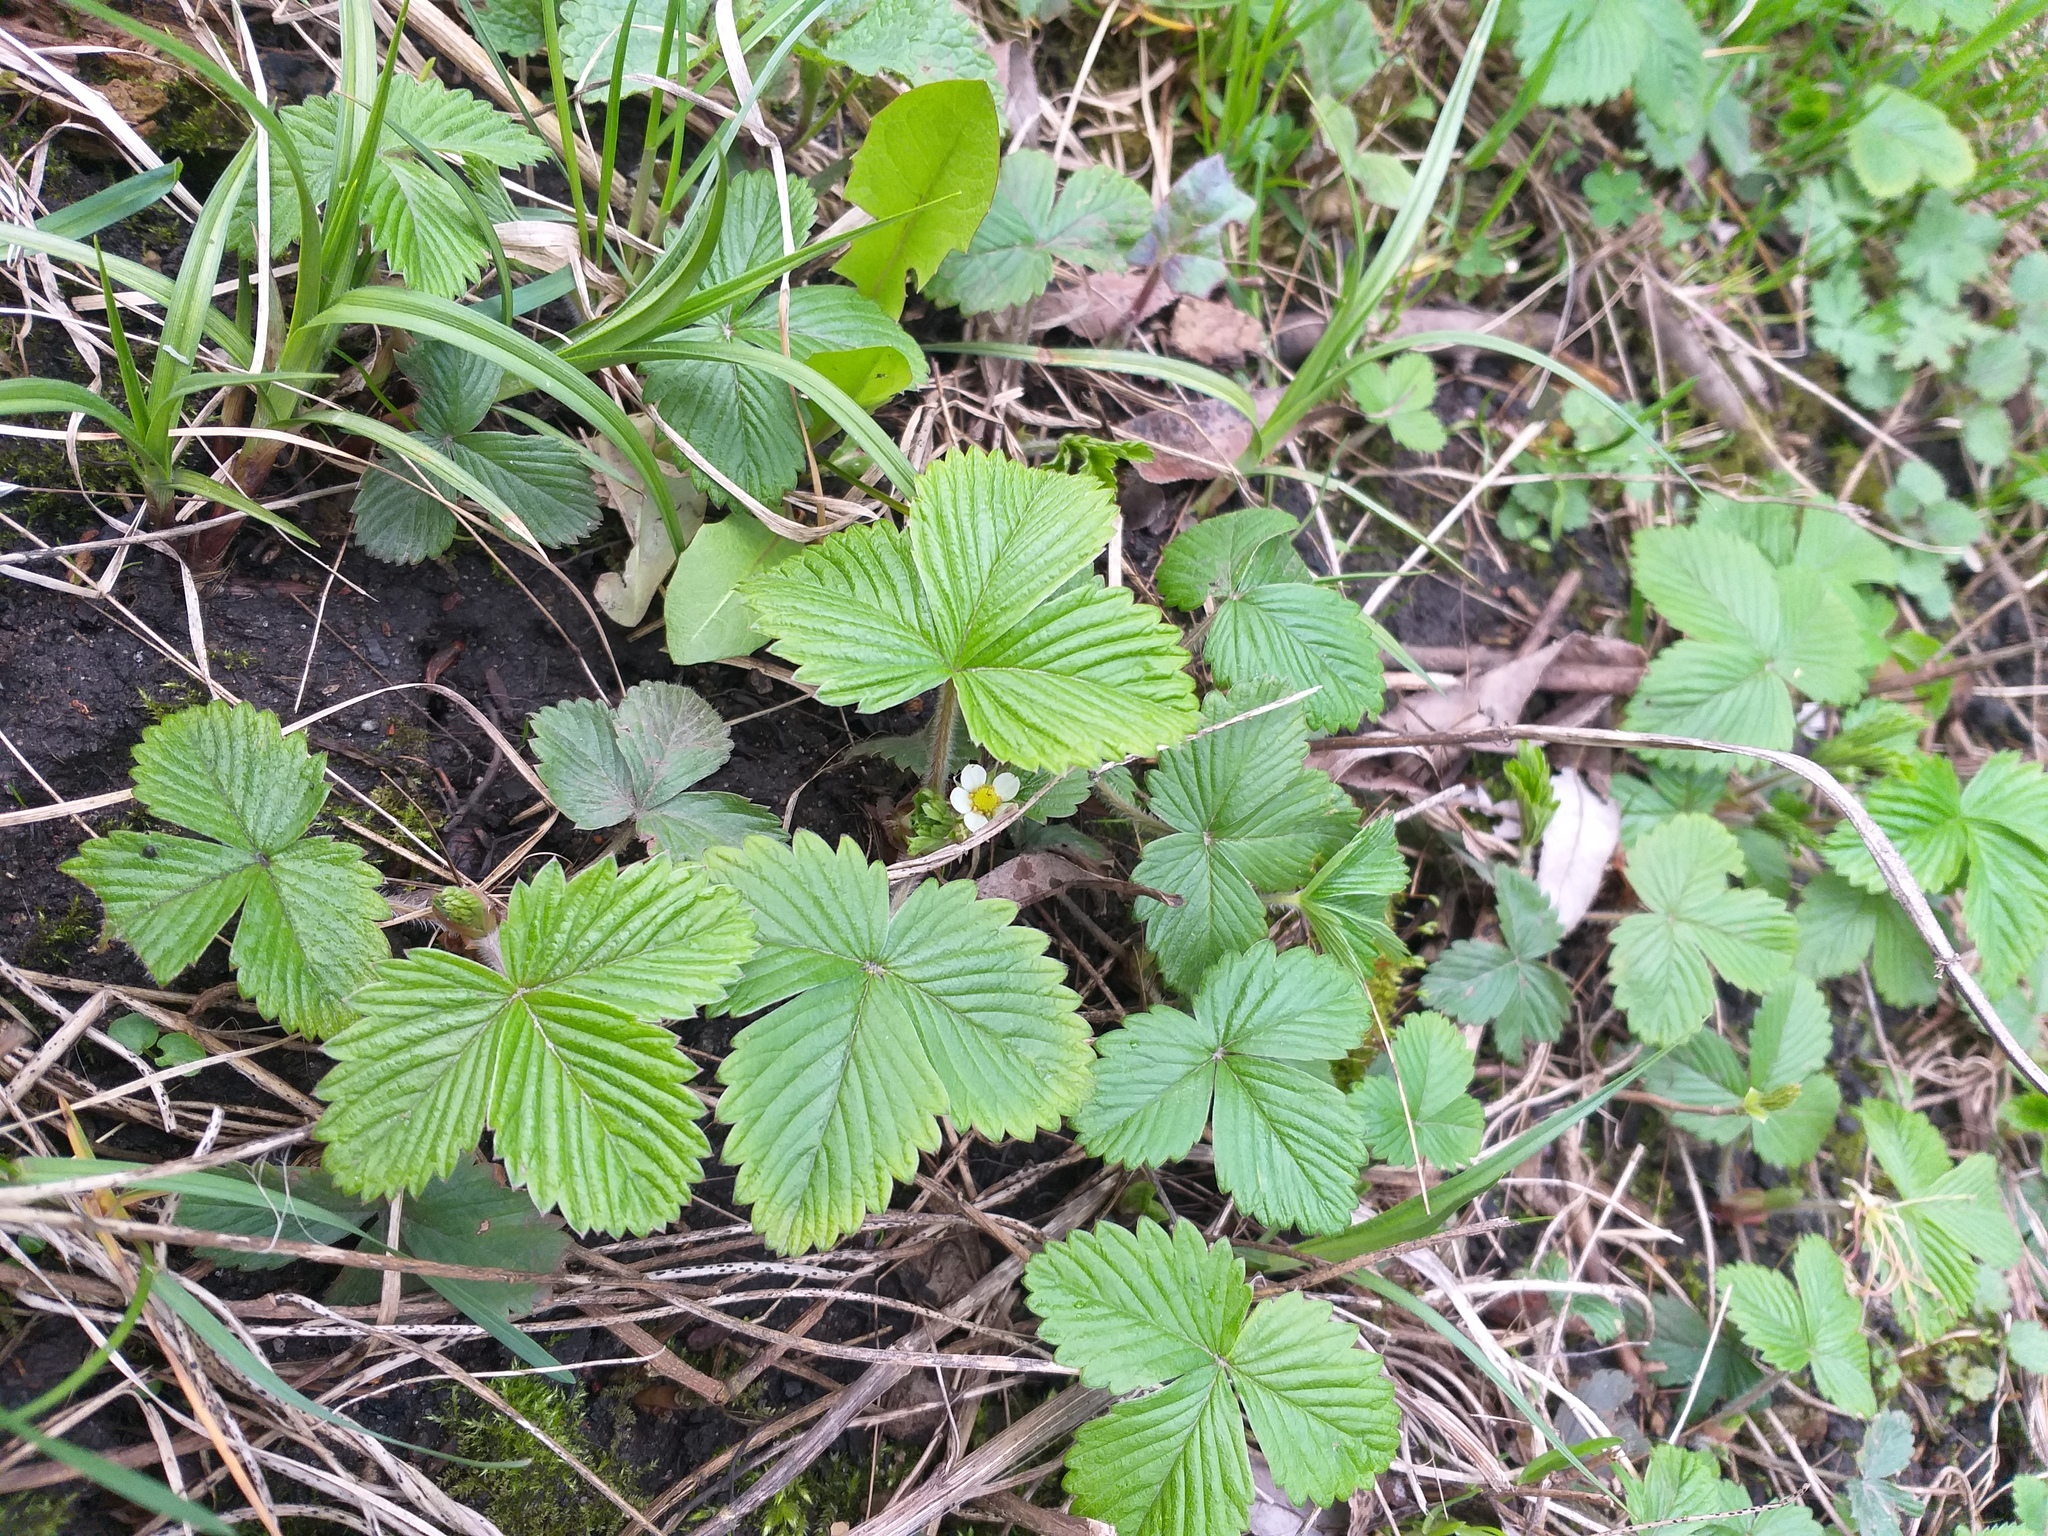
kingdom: Plantae
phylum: Tracheophyta
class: Magnoliopsida
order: Rosales
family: Rosaceae
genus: Fragaria
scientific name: Fragaria vesca
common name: Wild strawberry
